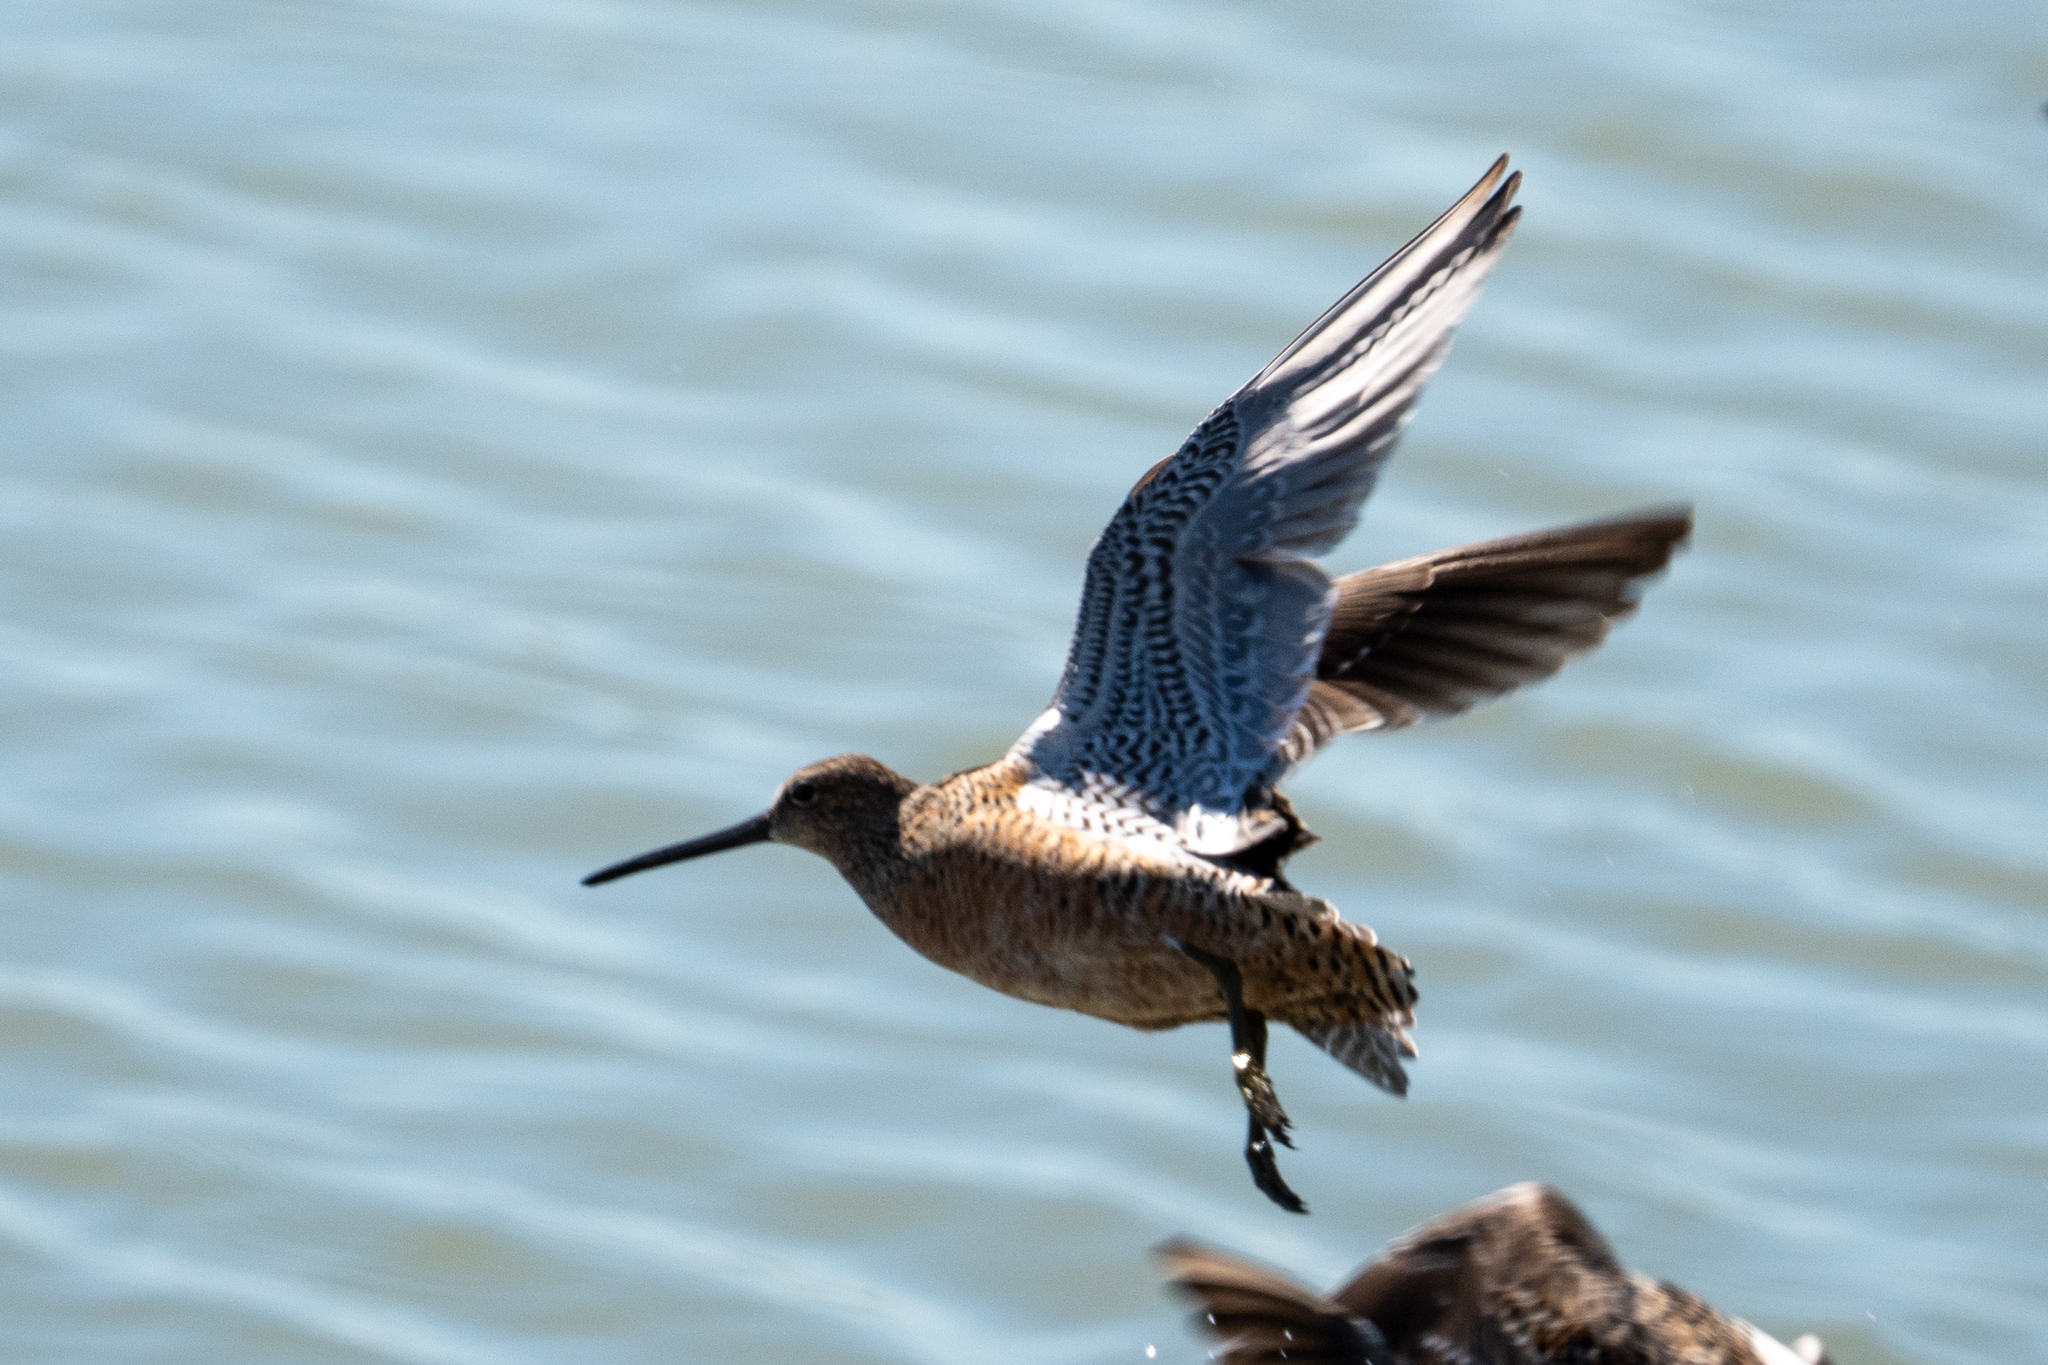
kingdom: Animalia
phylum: Chordata
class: Aves
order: Charadriiformes
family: Scolopacidae
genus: Limnodromus
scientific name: Limnodromus scolopaceus
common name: Long-billed dowitcher
